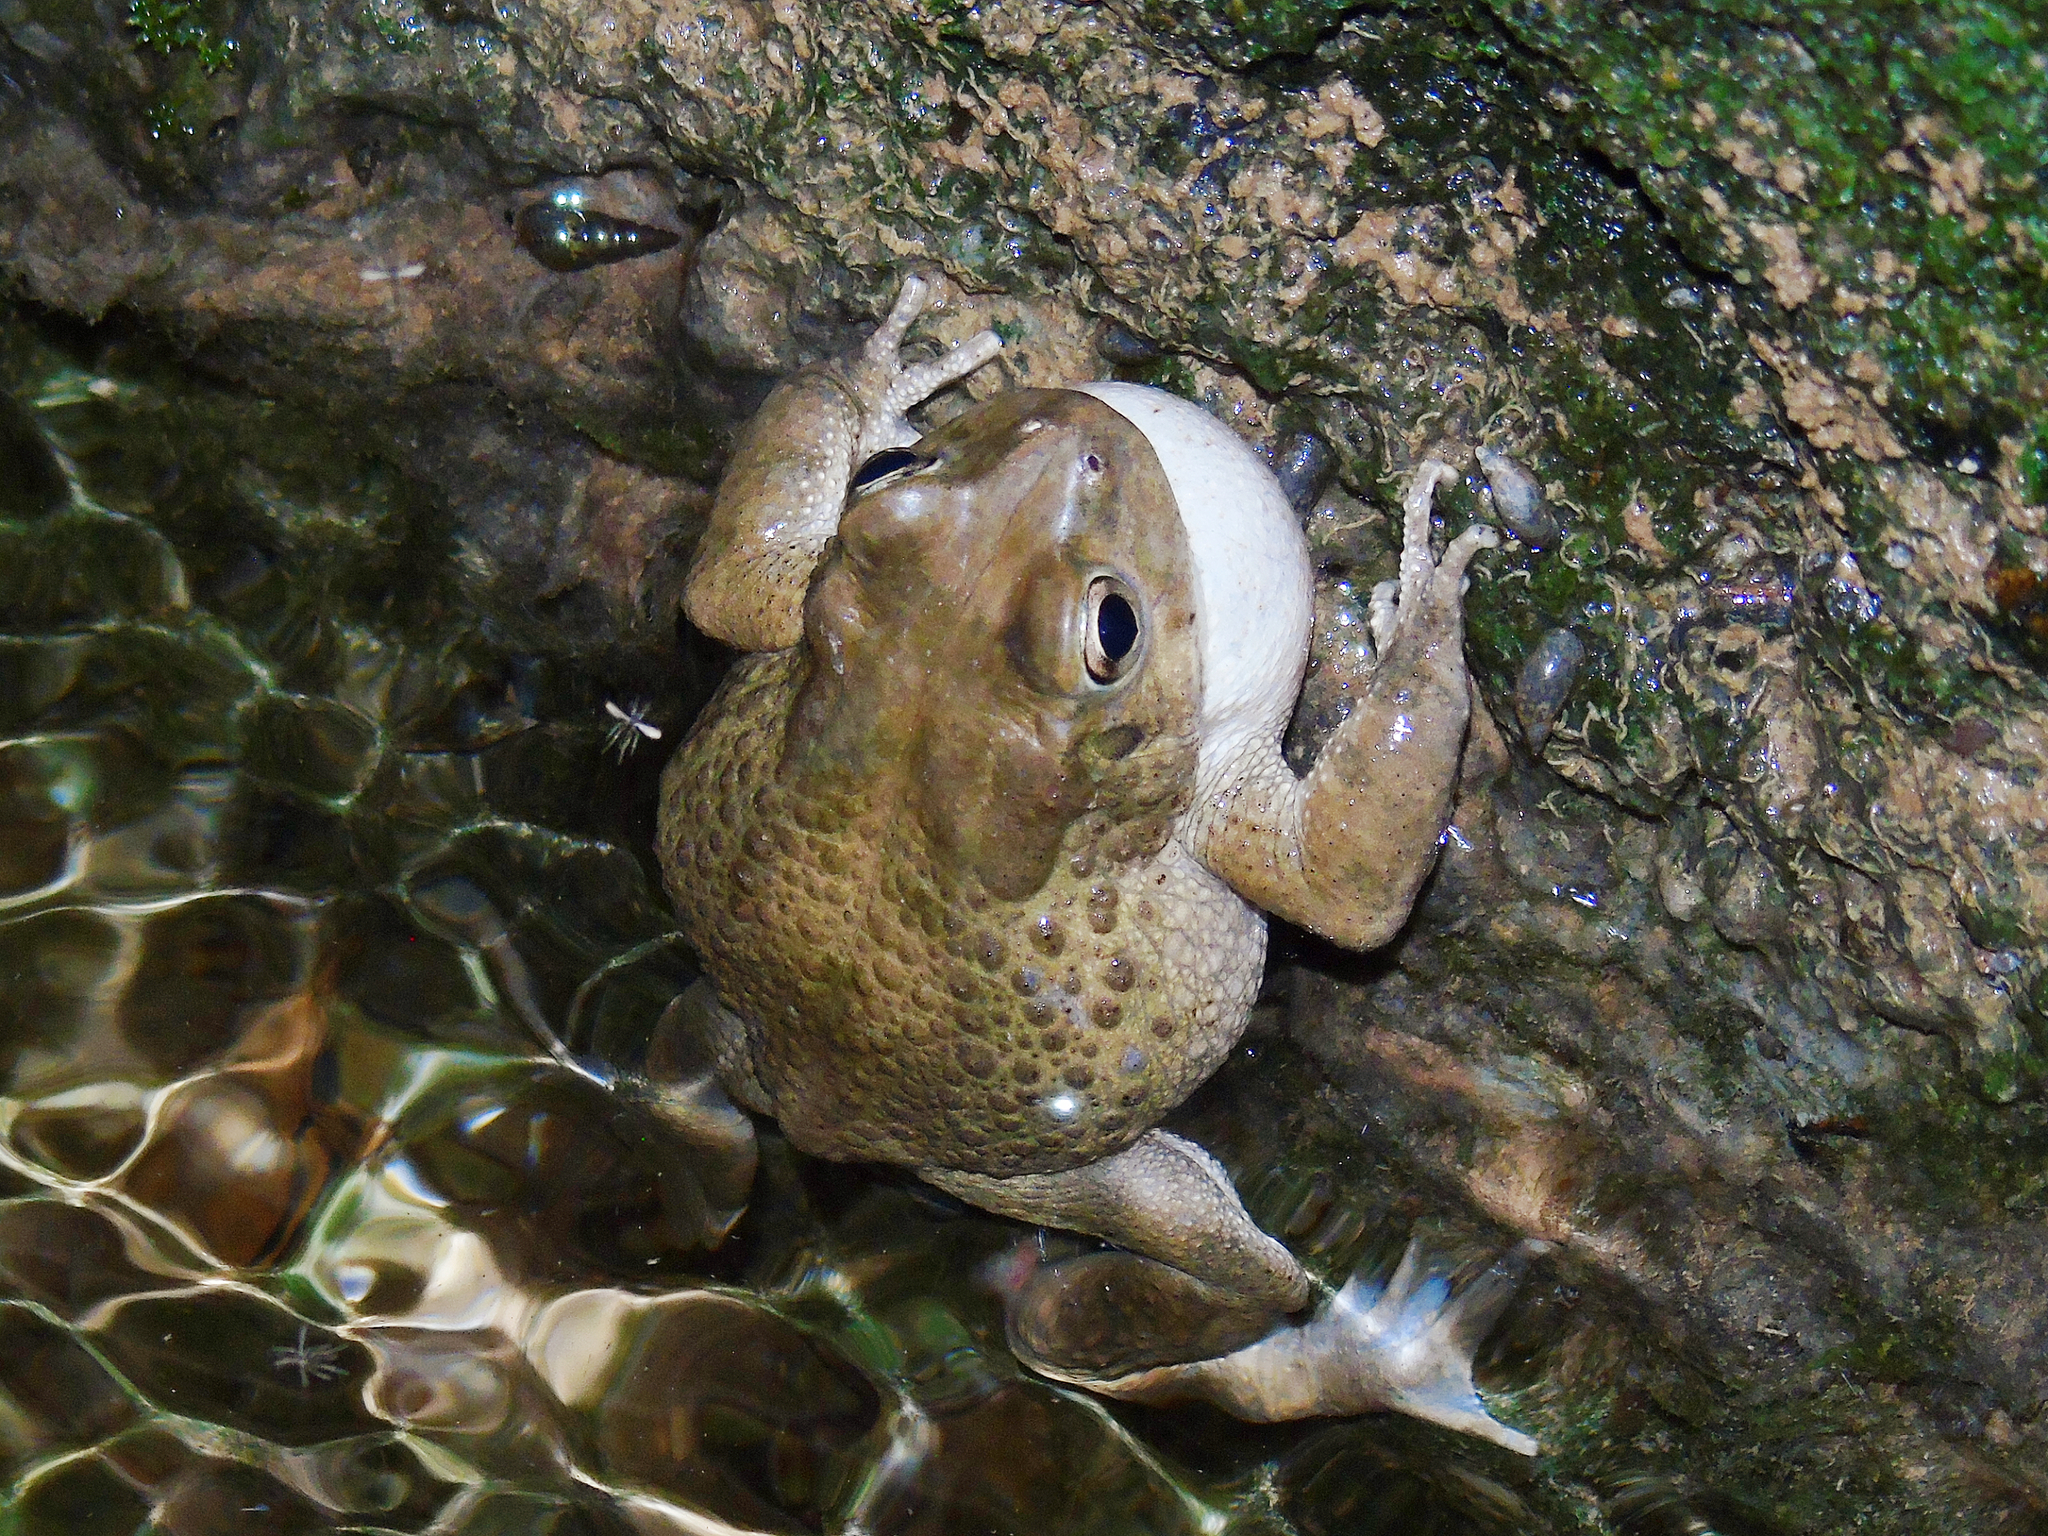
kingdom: Animalia
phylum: Chordata
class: Amphibia
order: Anura
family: Bufonidae
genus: Sclerophrys
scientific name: Sclerophrys arabica
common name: Arabian toad
